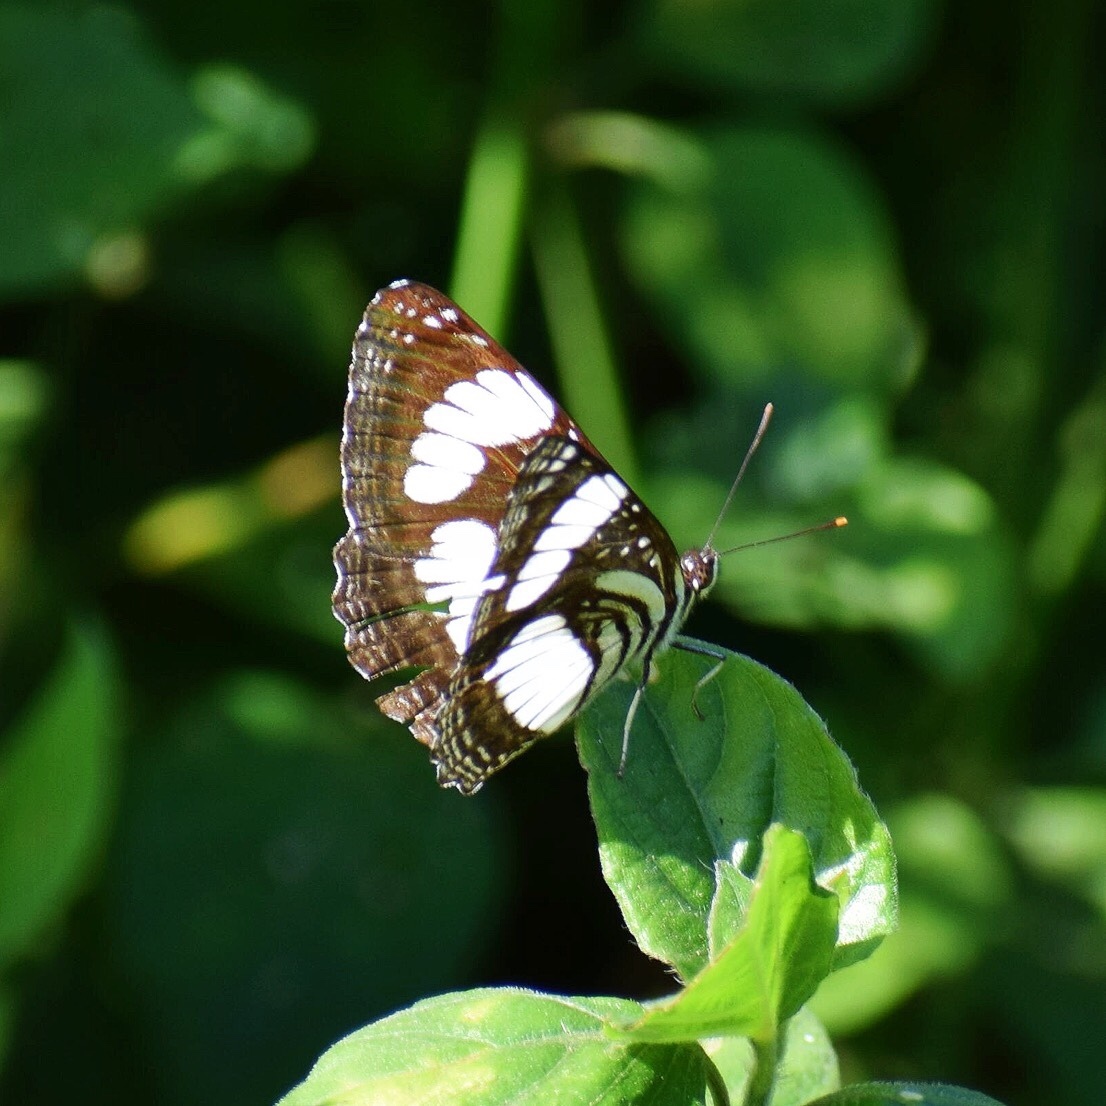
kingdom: Animalia
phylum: Arthropoda
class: Insecta
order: Lepidoptera
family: Nymphalidae
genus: Neptis
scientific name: Neptis laeta
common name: Common barred sailor
